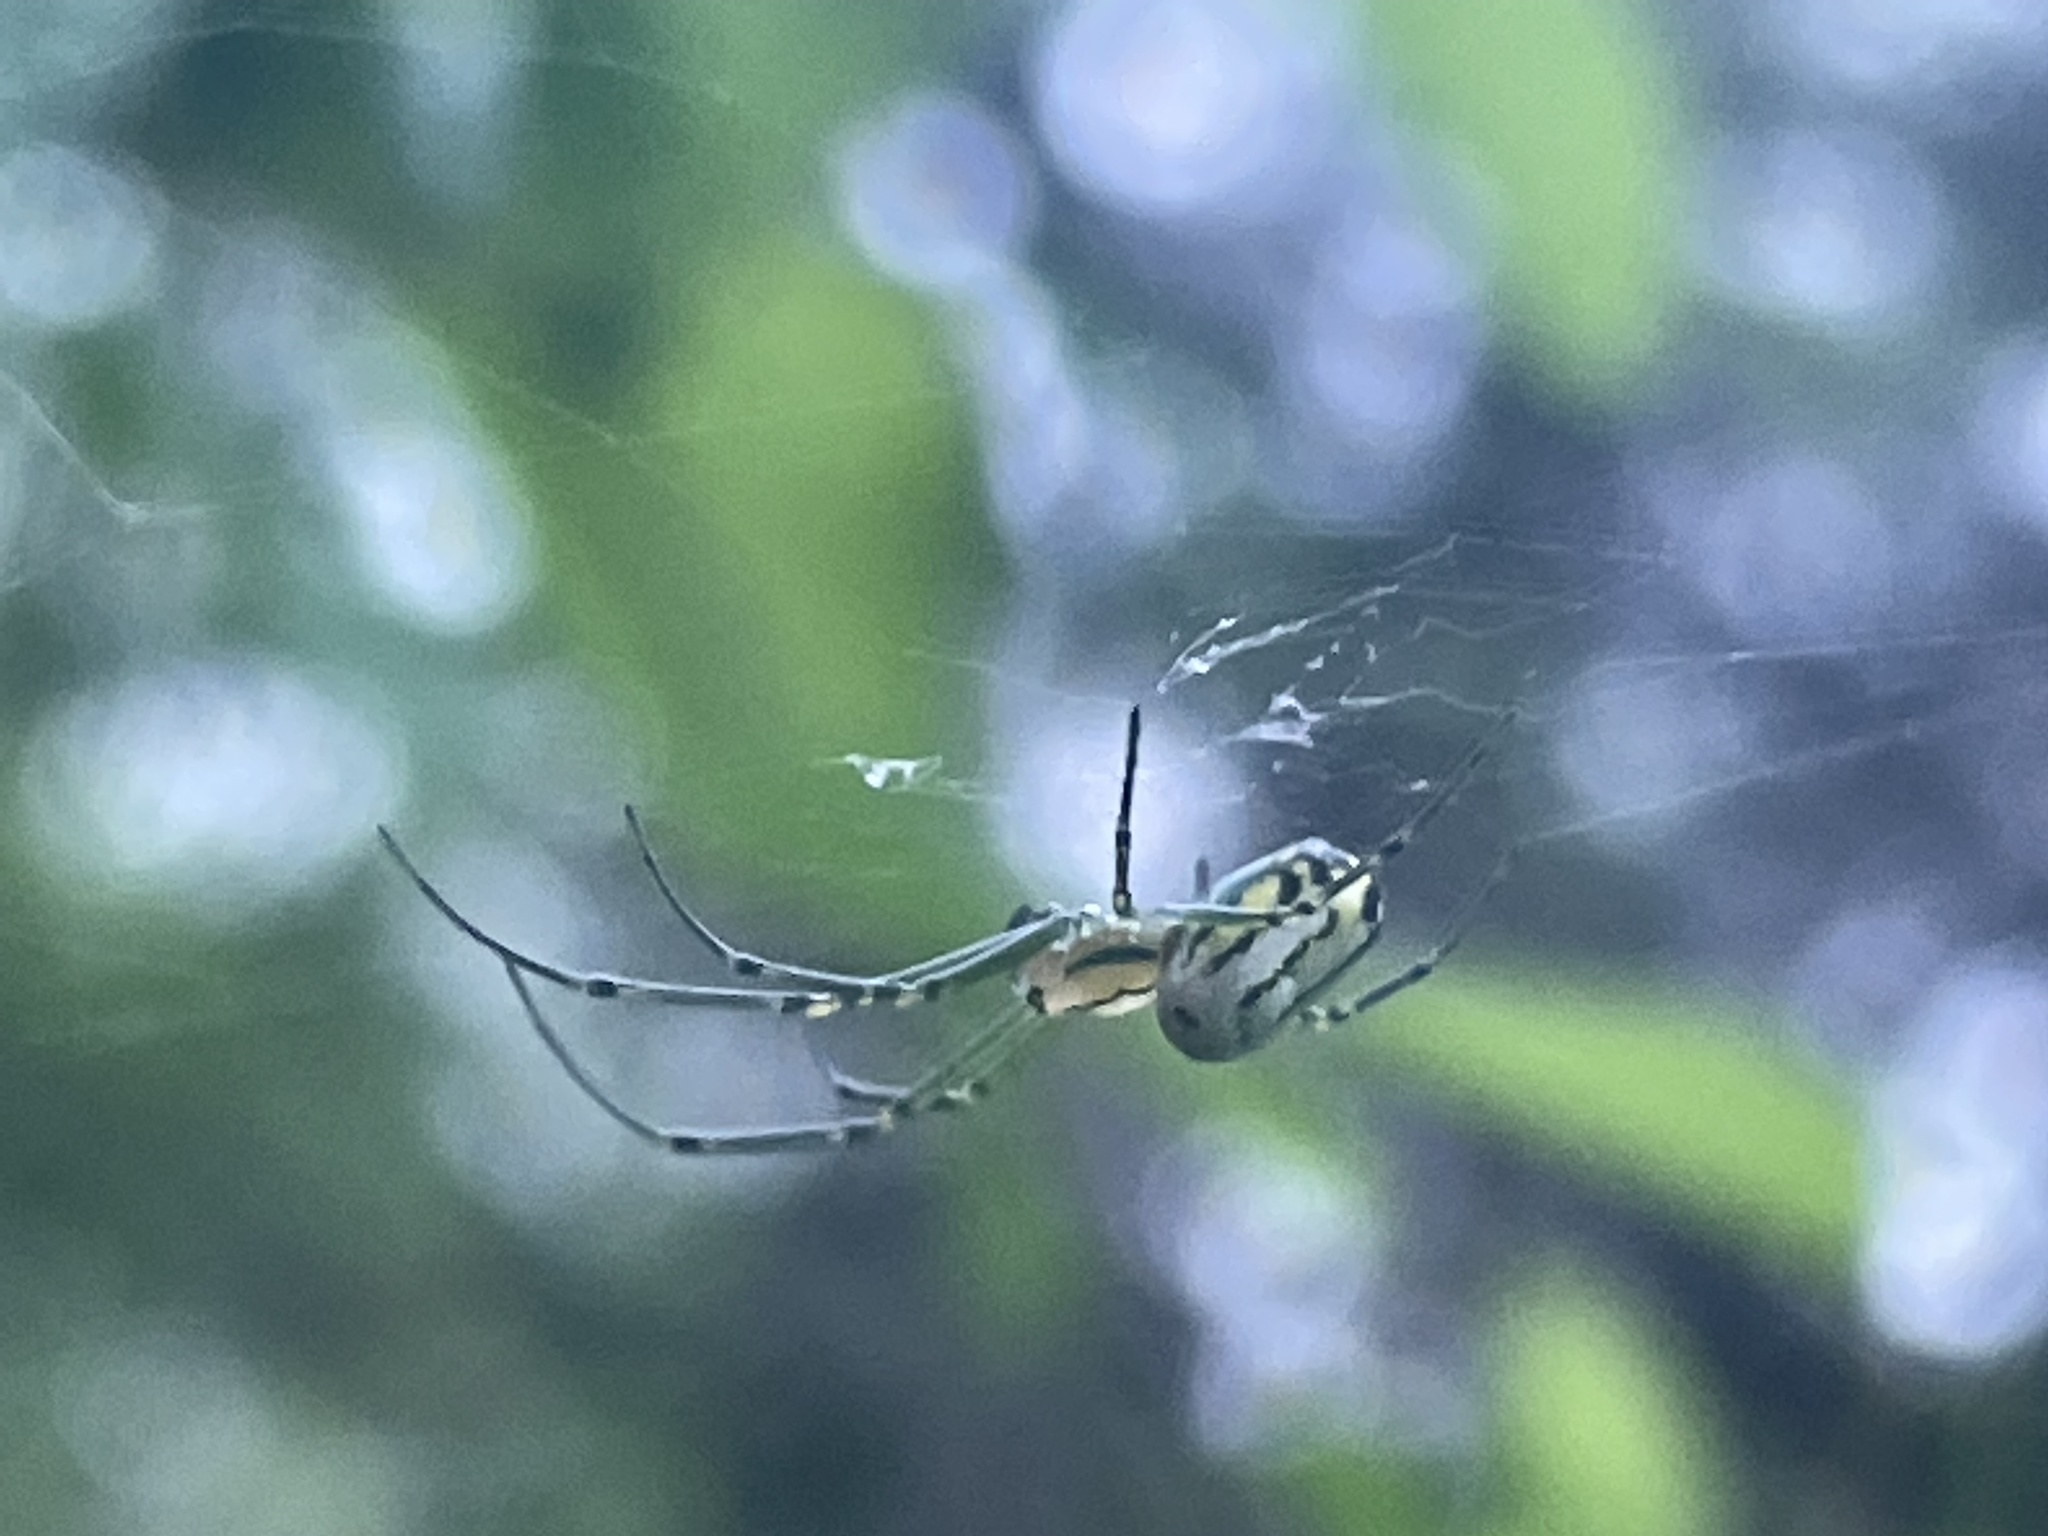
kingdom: Animalia
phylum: Arthropoda
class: Arachnida
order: Araneae
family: Tetragnathidae
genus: Leucauge
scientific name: Leucauge venusta
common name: Longjawed orb weavers
